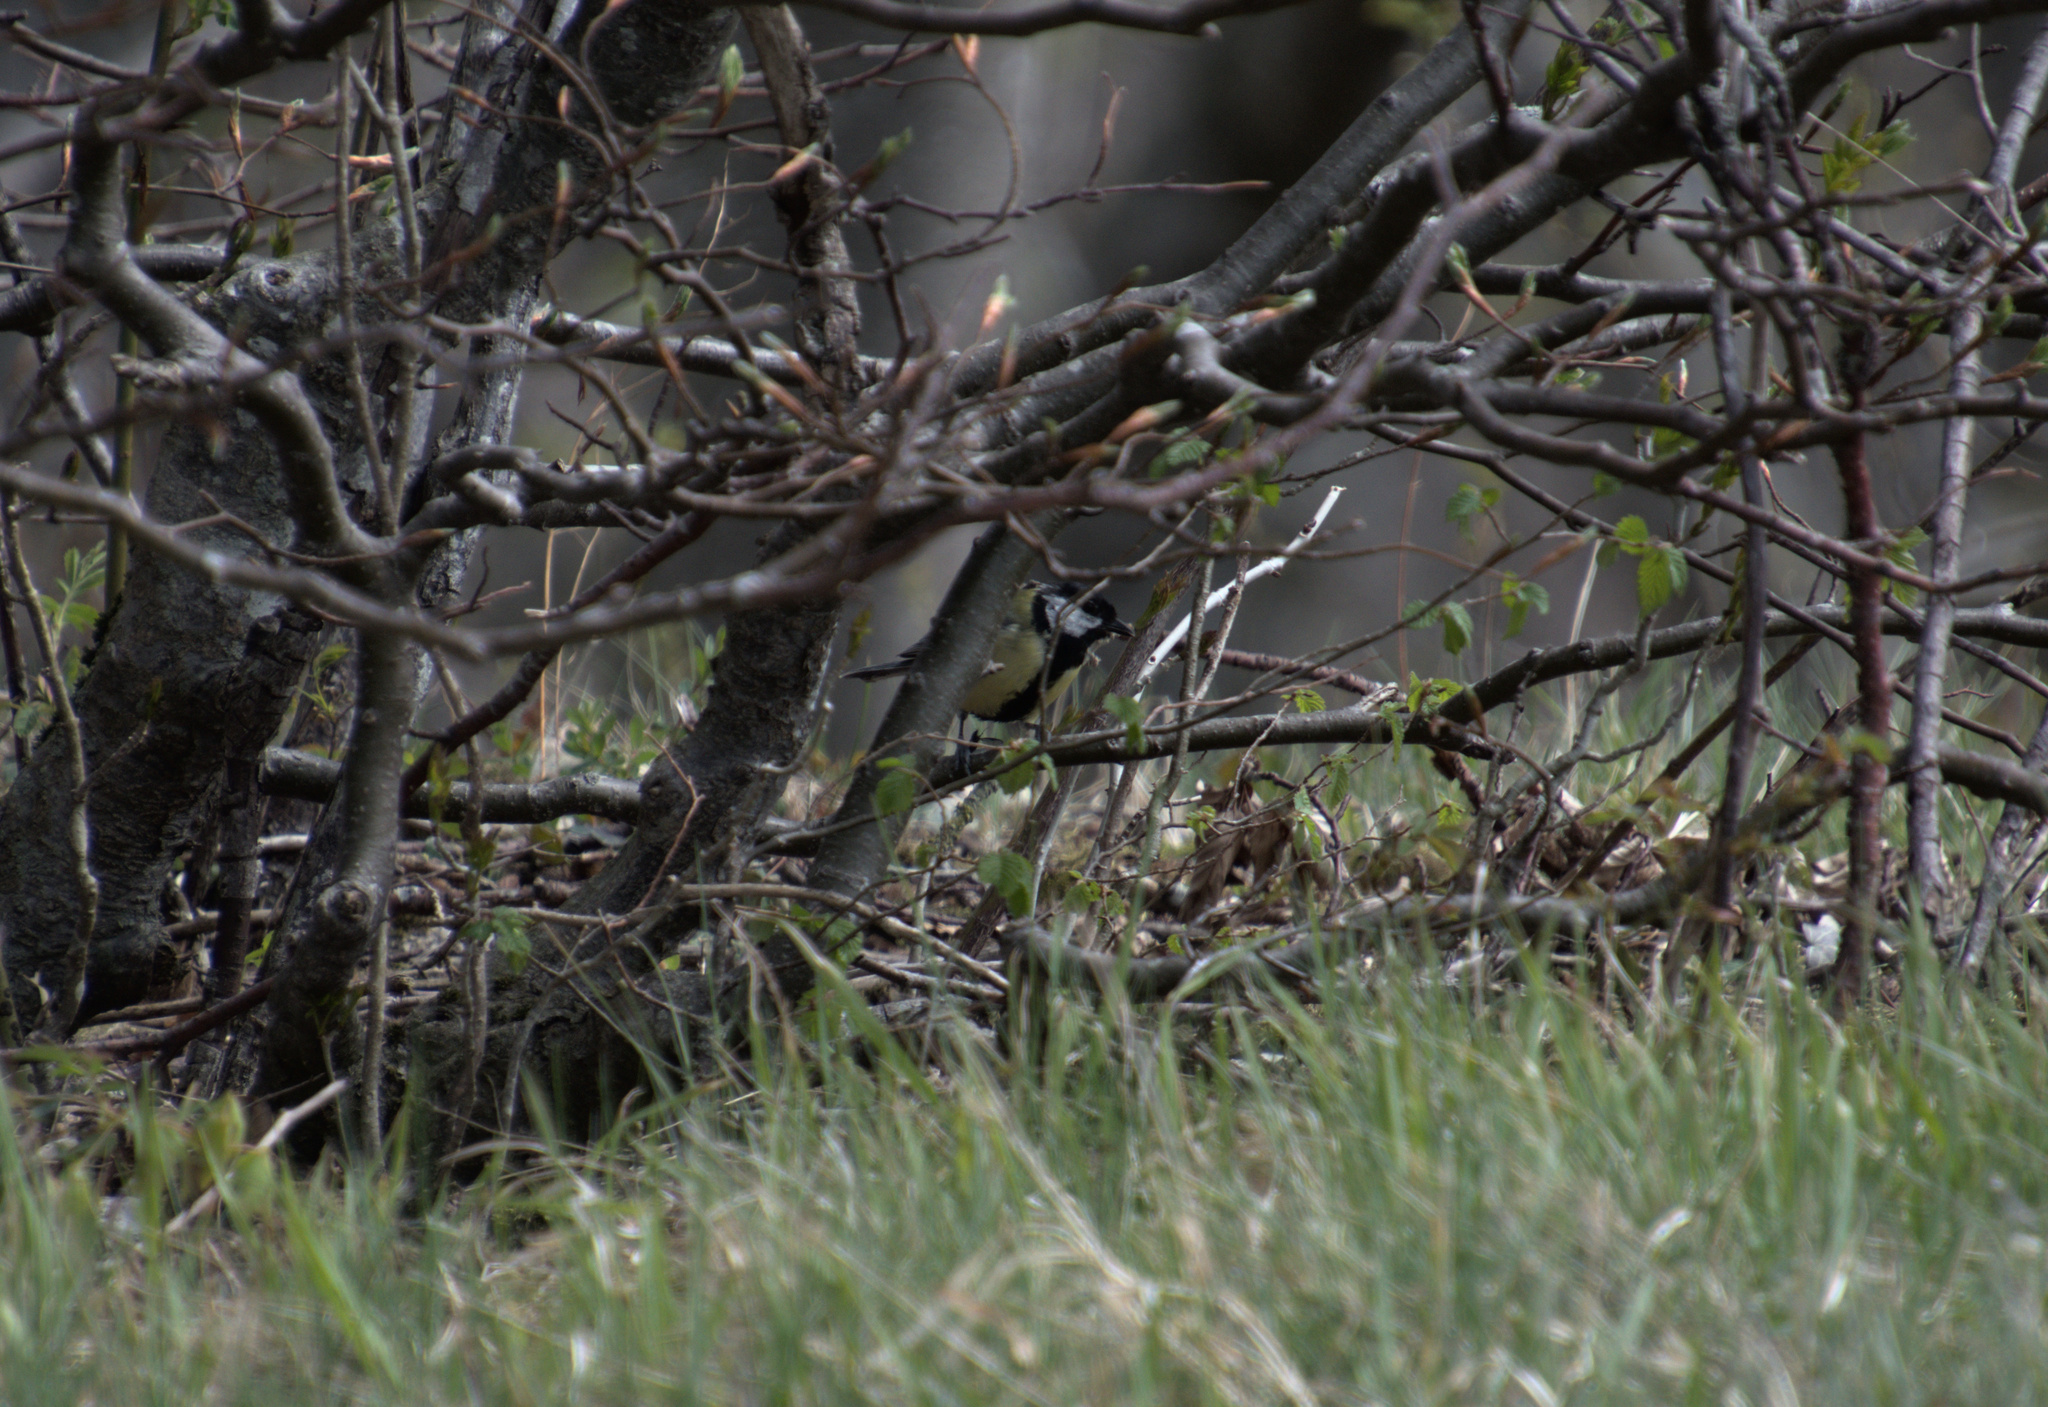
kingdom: Animalia
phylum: Chordata
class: Aves
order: Passeriformes
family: Paridae
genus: Parus
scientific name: Parus major
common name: Great tit
